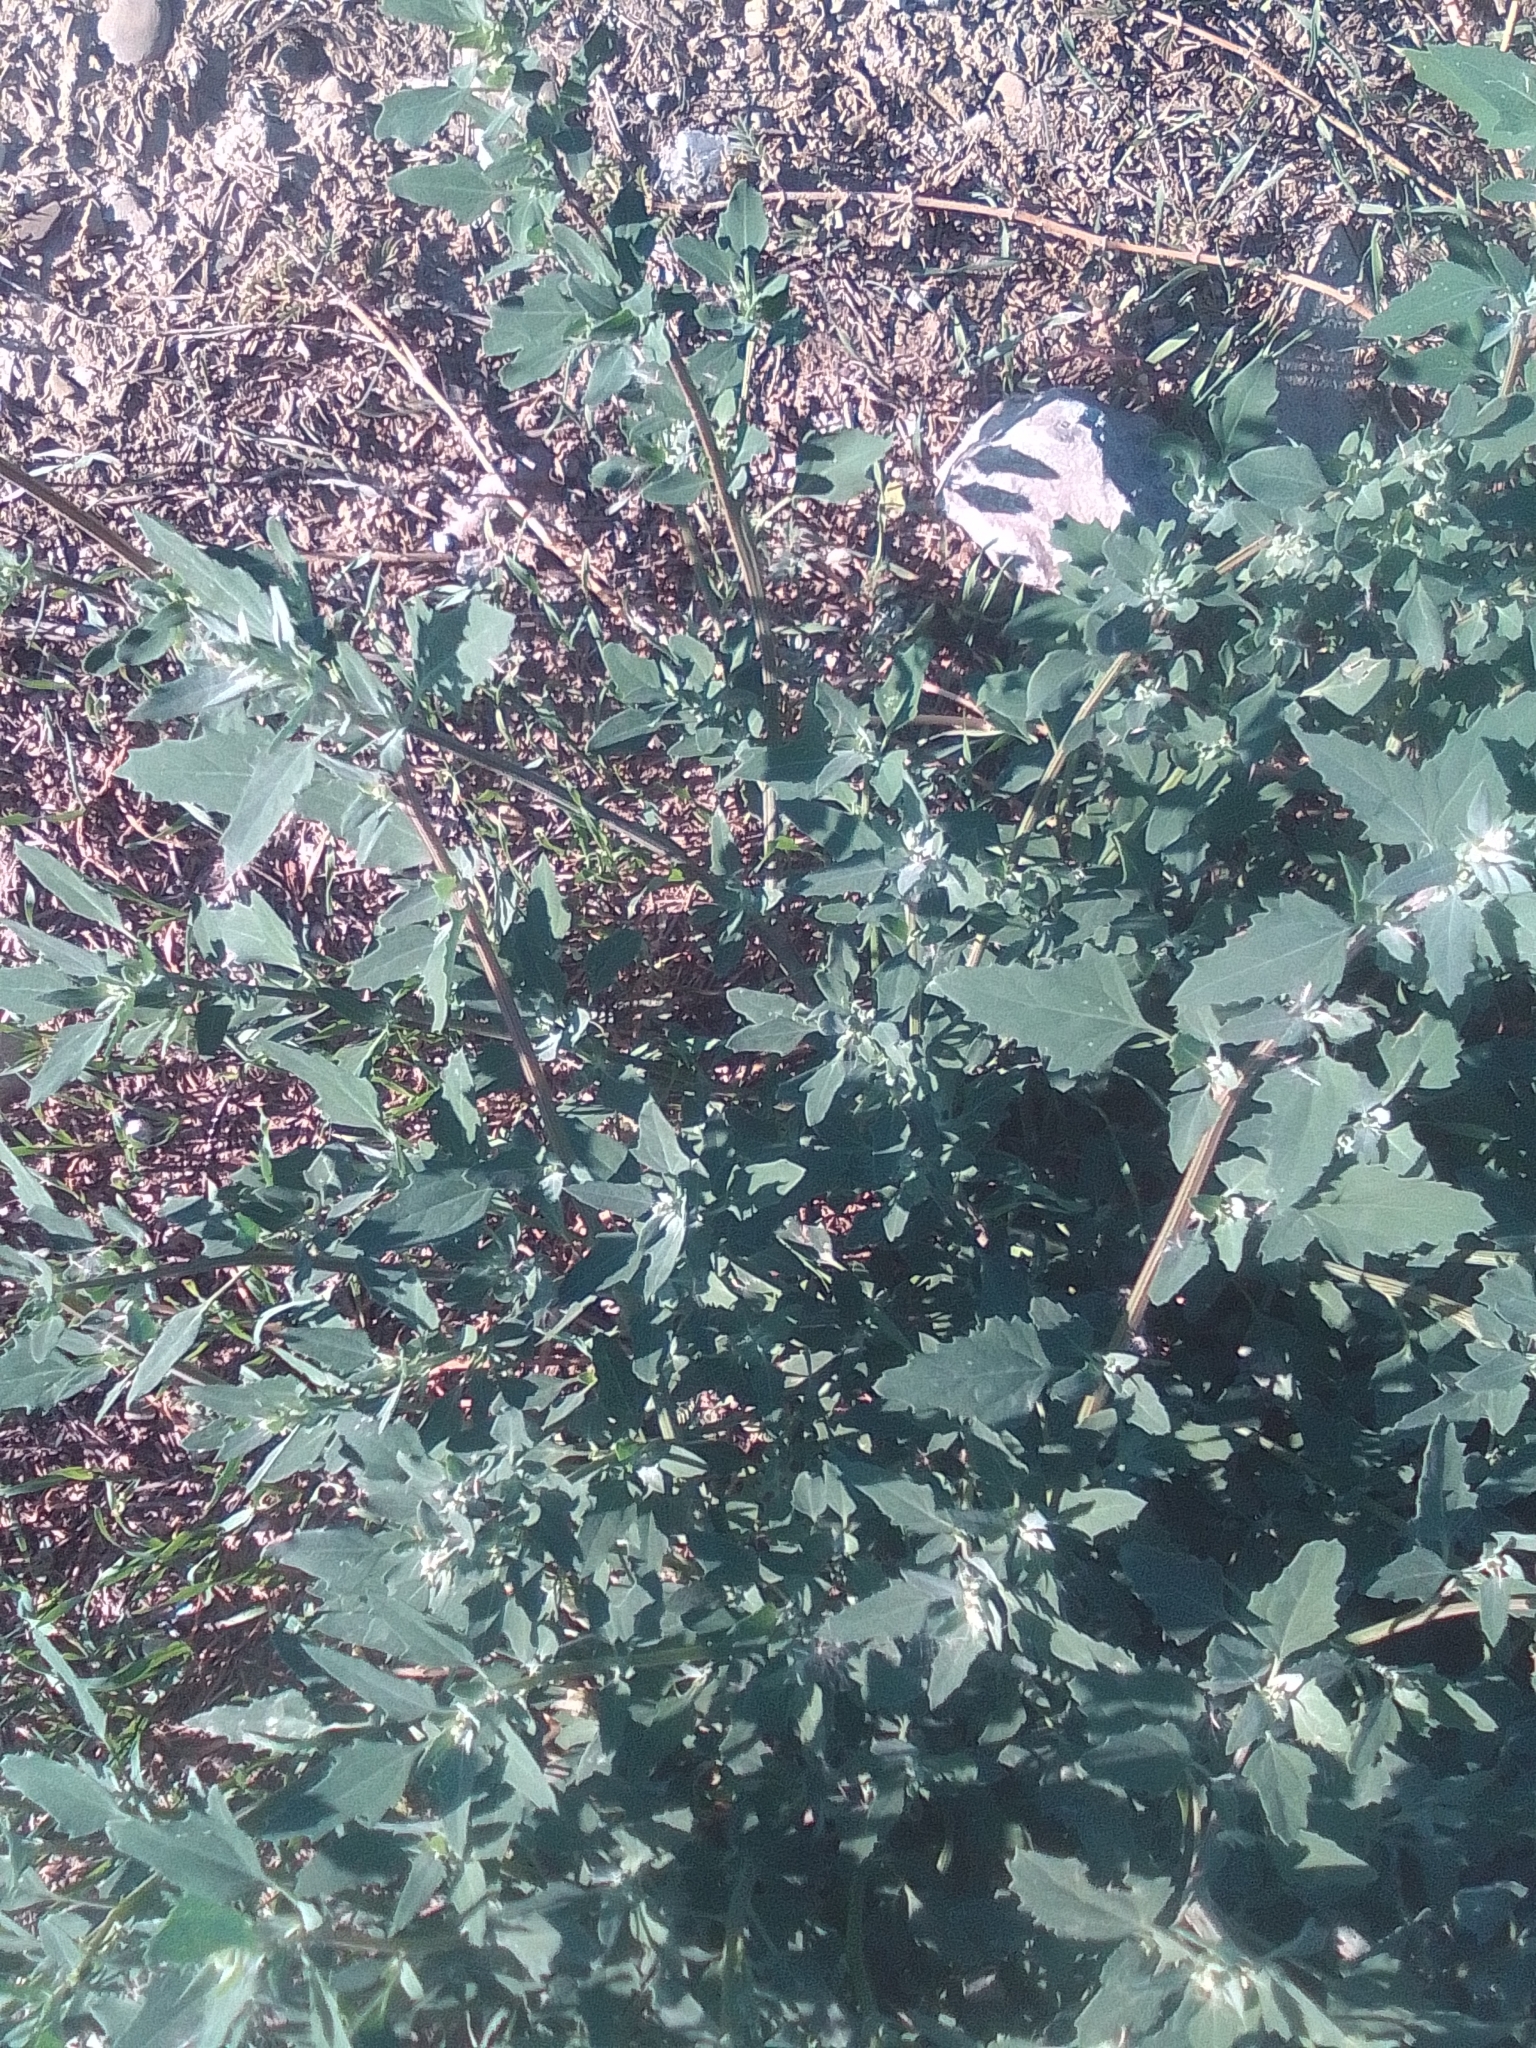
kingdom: Plantae
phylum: Tracheophyta
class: Magnoliopsida
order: Caryophyllales
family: Amaranthaceae
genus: Chenopodium
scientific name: Chenopodium album
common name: Fat-hen
